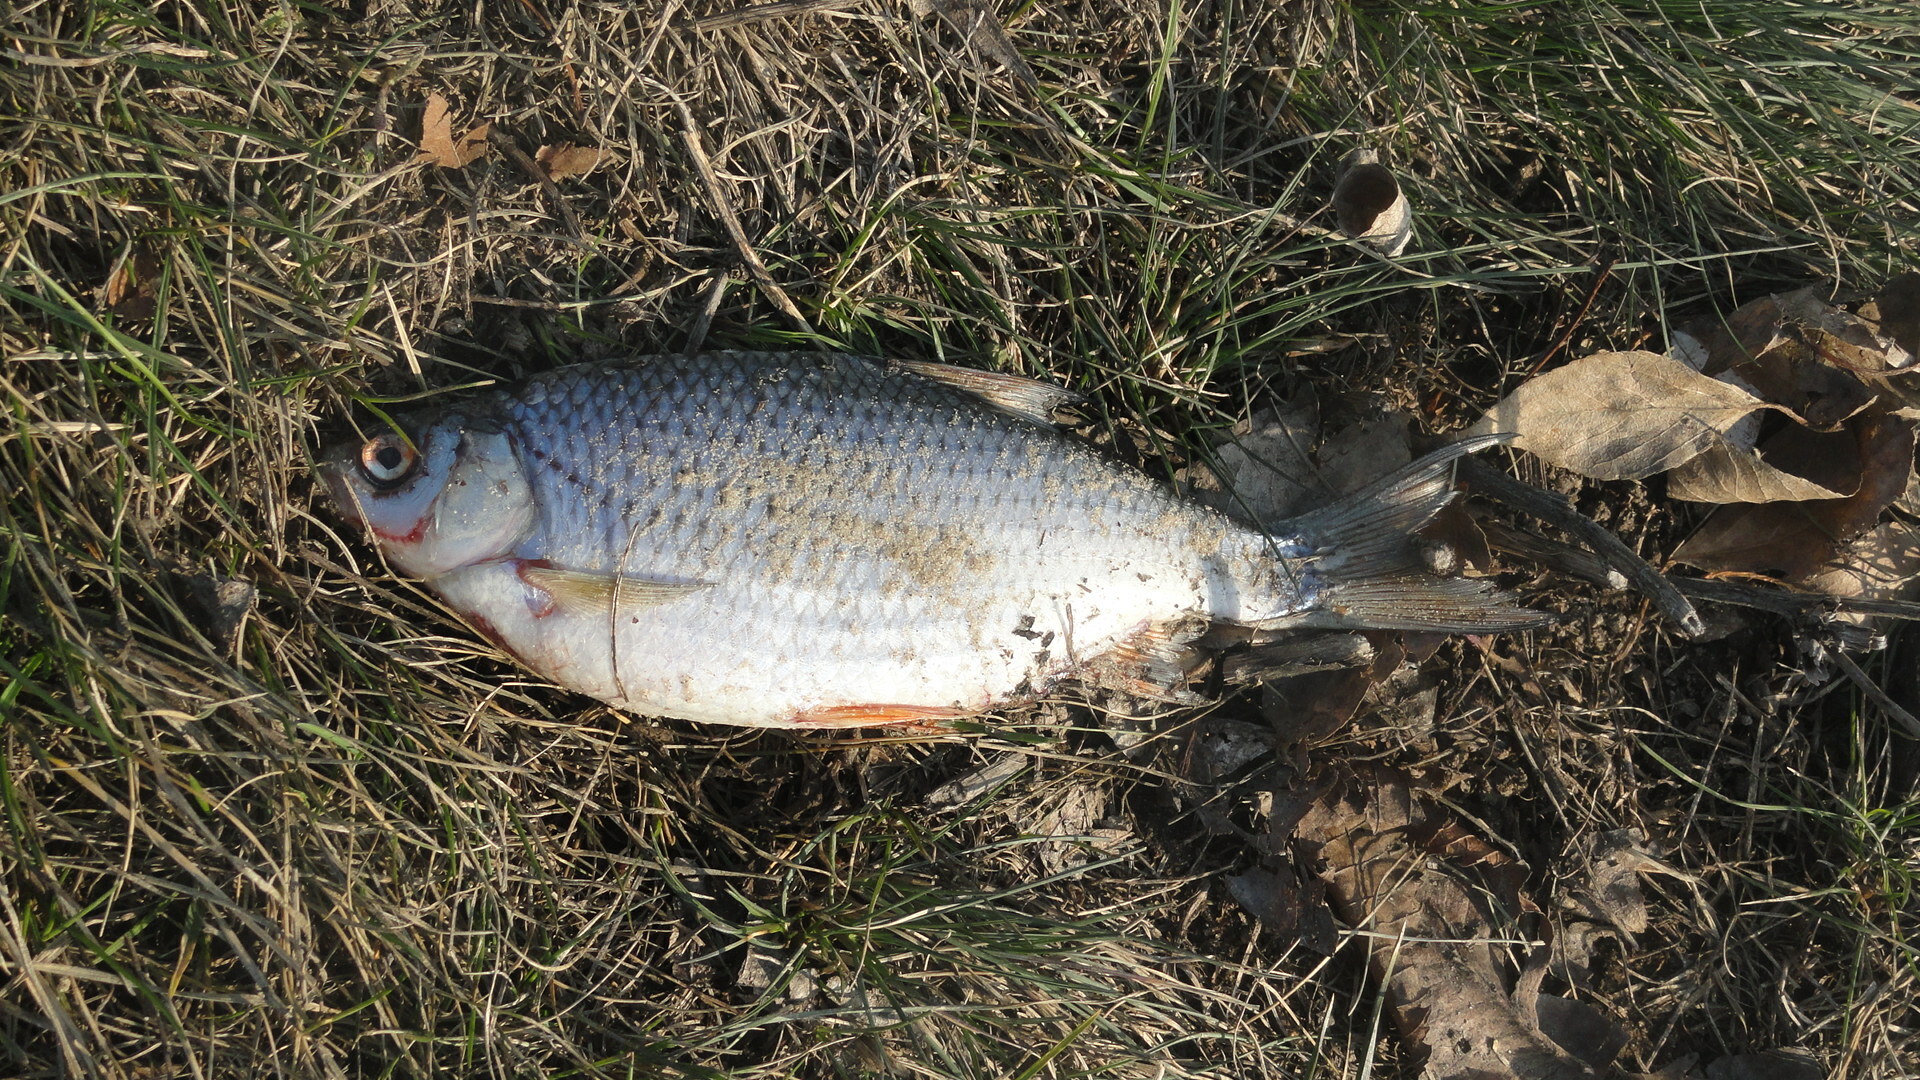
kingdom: Animalia
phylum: Chordata
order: Cypriniformes
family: Cyprinidae
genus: Rutilus
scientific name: Rutilus rutilus
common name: Roach
